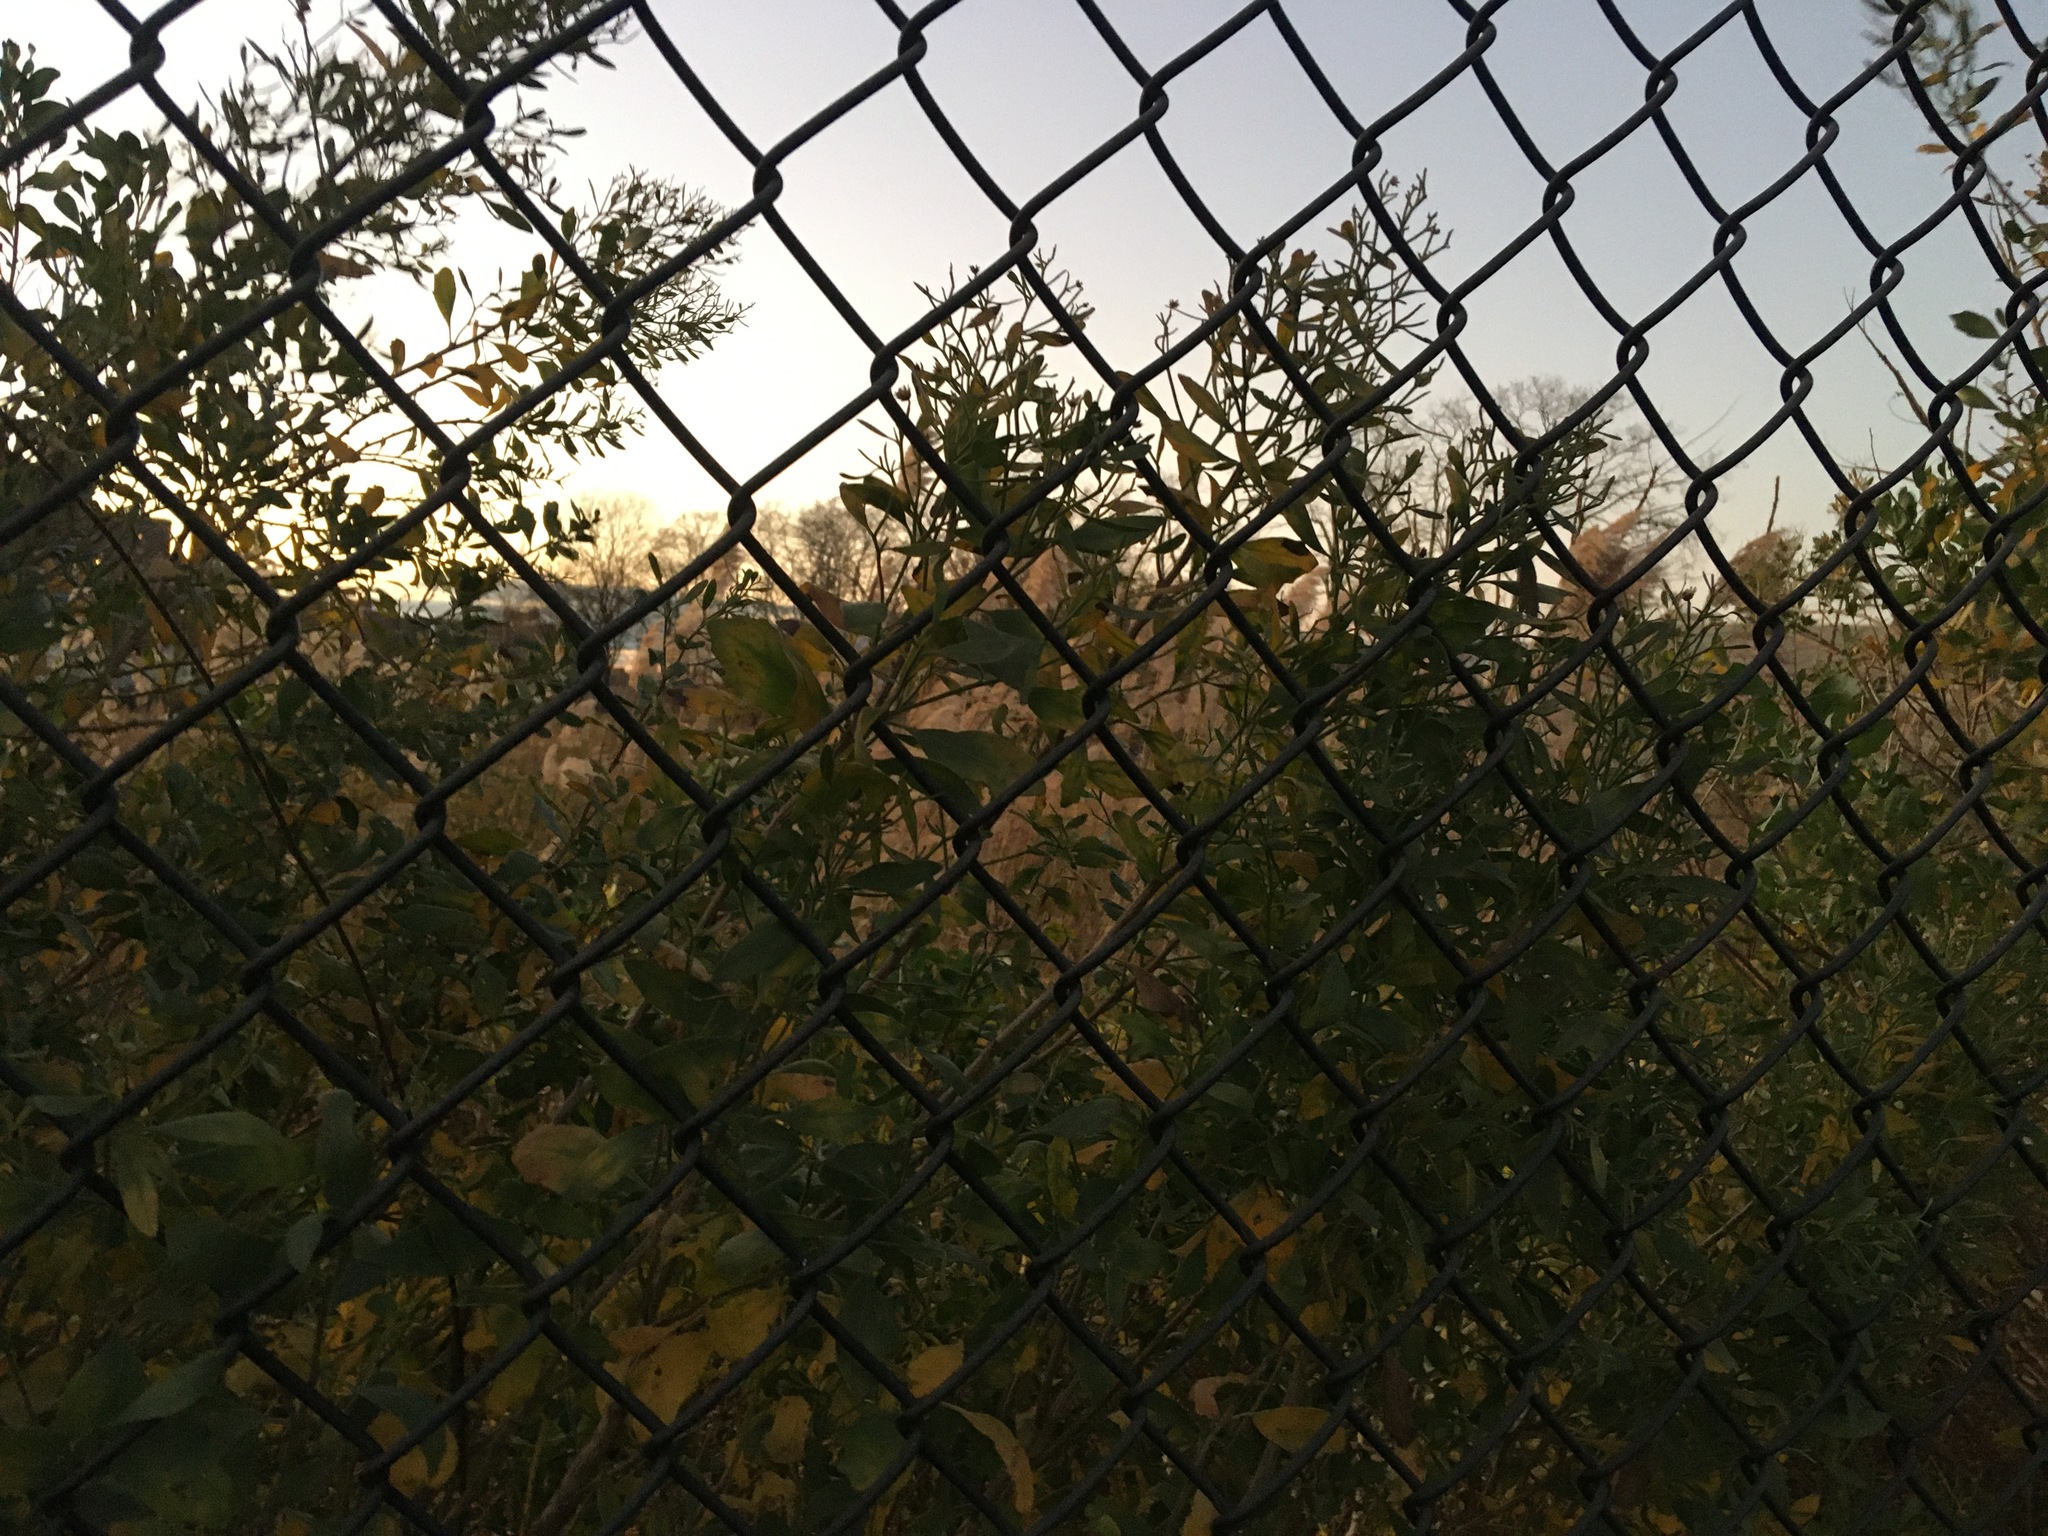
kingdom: Plantae
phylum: Tracheophyta
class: Magnoliopsida
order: Asterales
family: Asteraceae
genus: Baccharis
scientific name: Baccharis halimifolia
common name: Eastern baccharis
